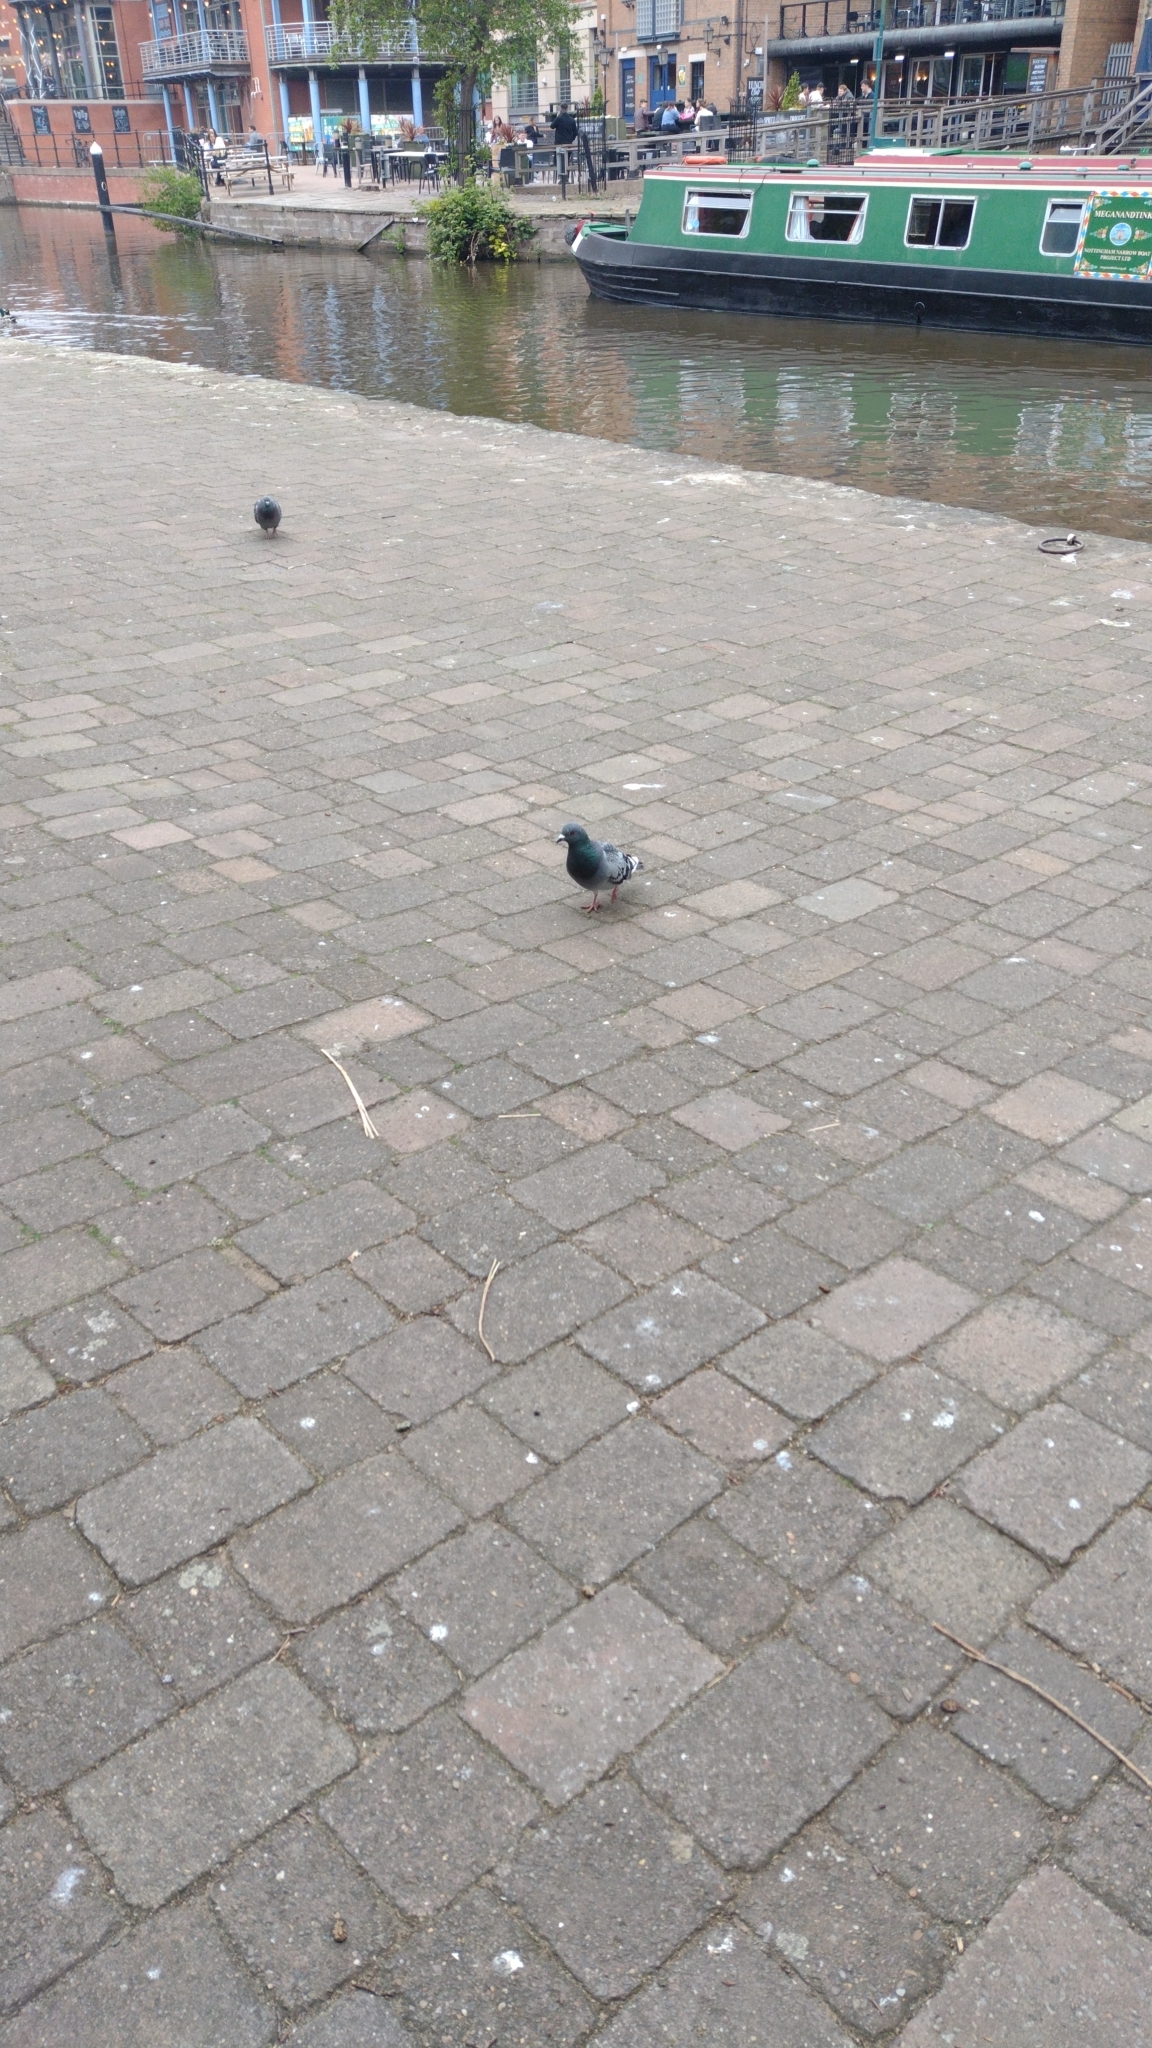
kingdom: Animalia
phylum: Chordata
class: Aves
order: Columbiformes
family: Columbidae
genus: Columba
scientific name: Columba livia
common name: Rock pigeon
